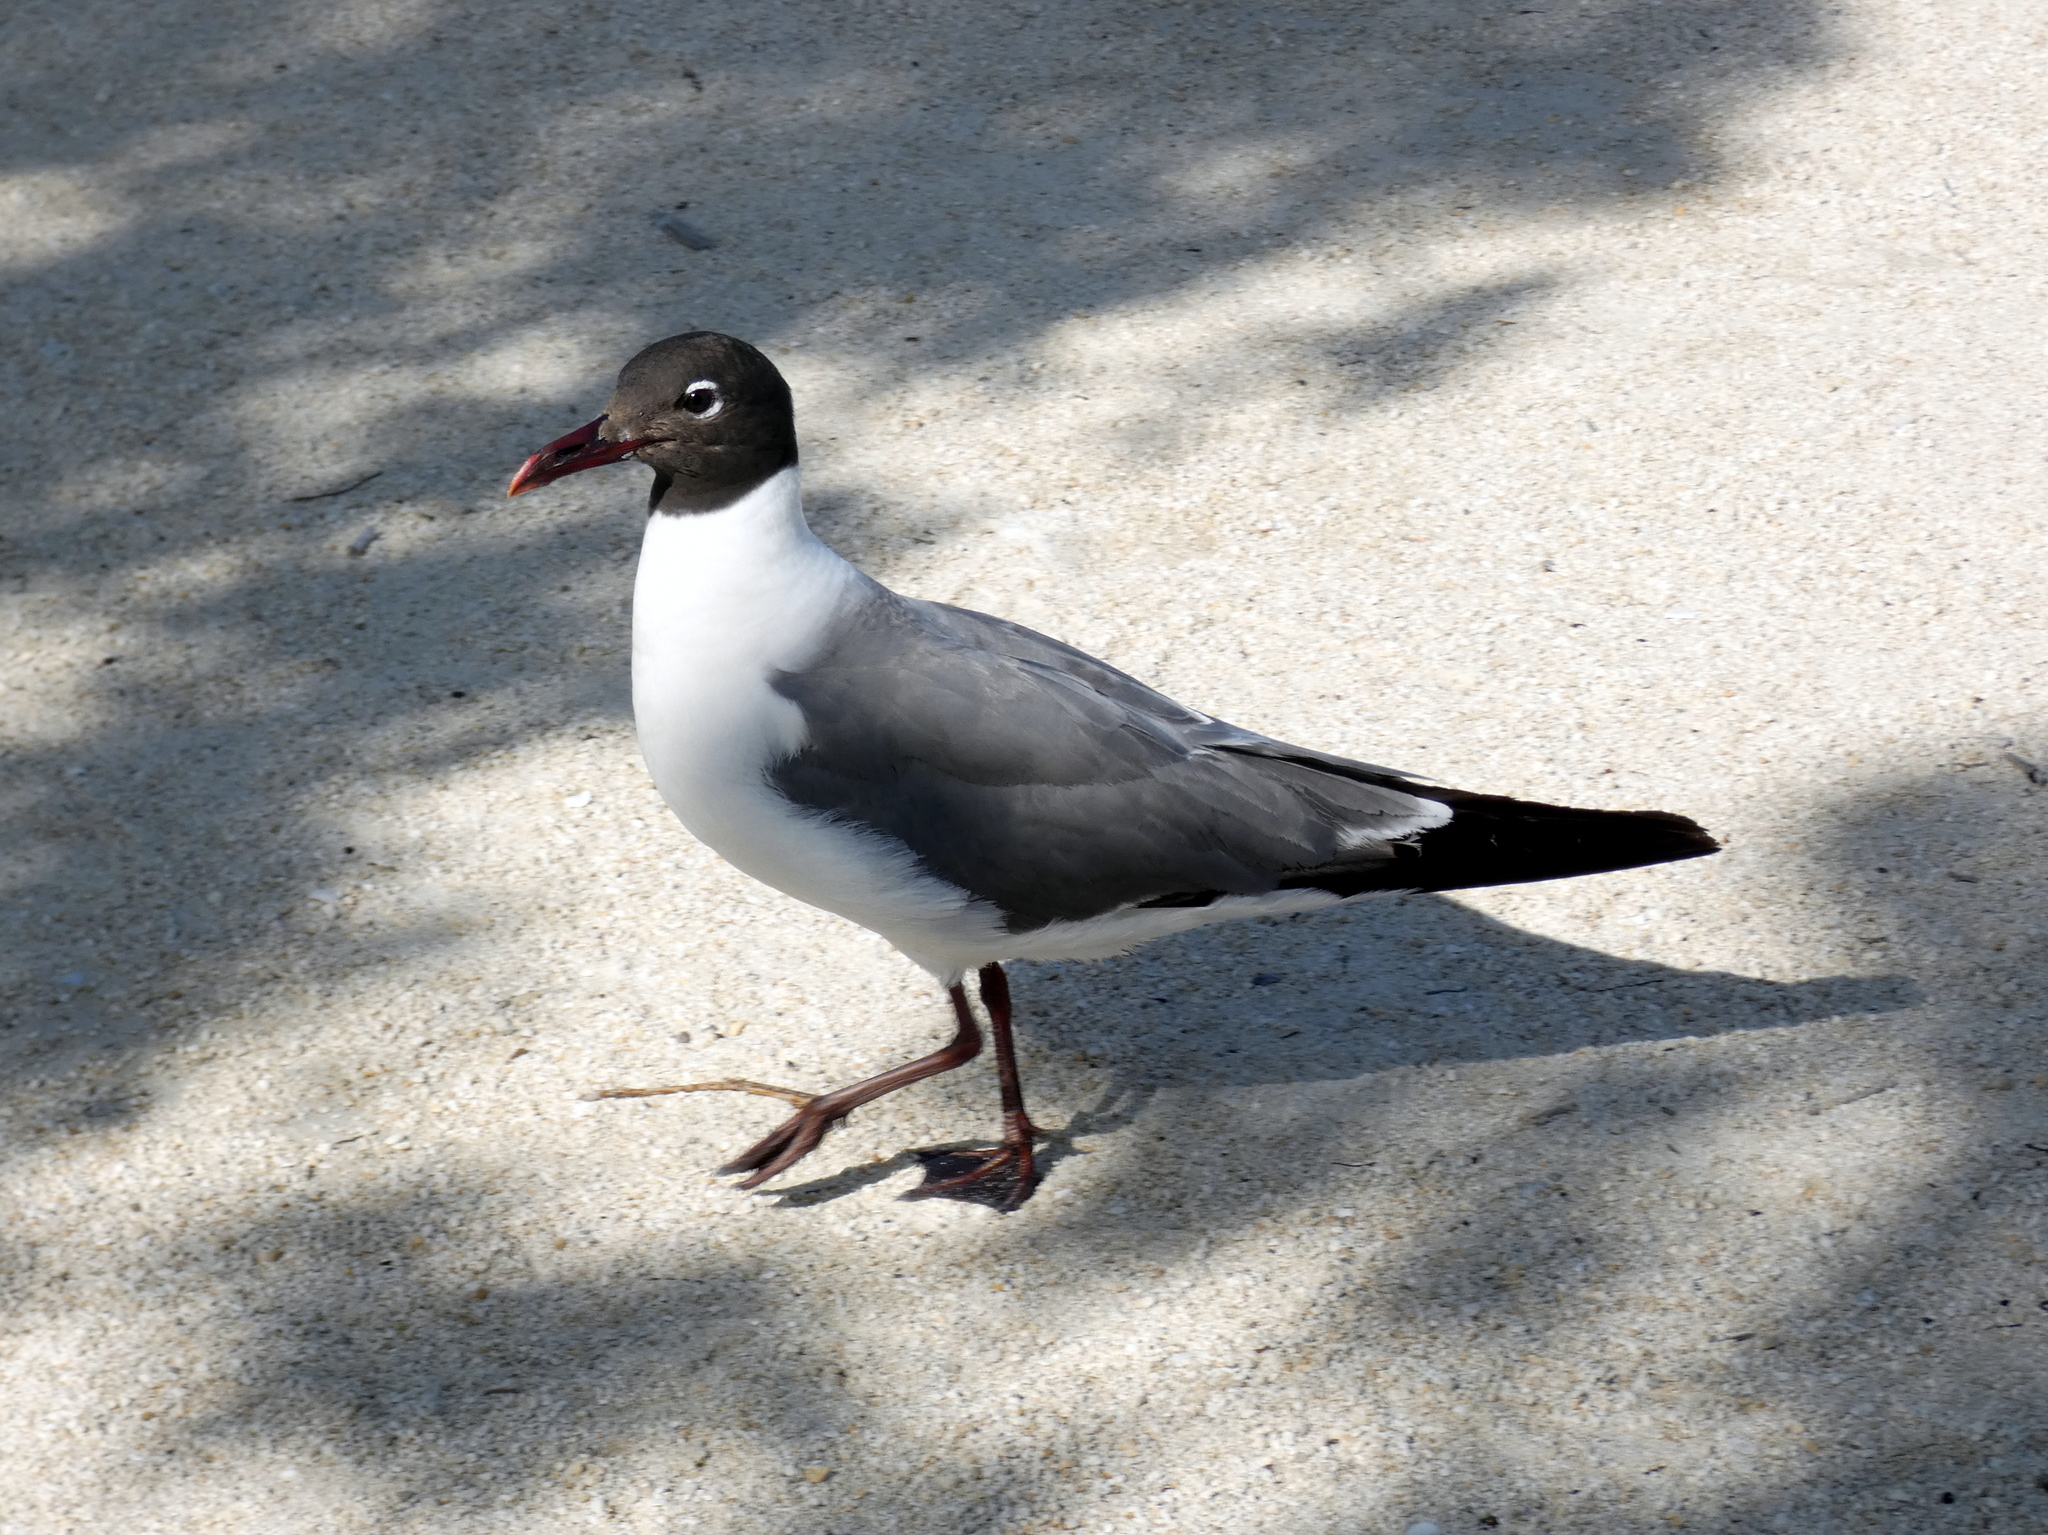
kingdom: Animalia
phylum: Chordata
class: Aves
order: Charadriiformes
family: Laridae
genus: Leucophaeus
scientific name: Leucophaeus atricilla
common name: Laughing gull
